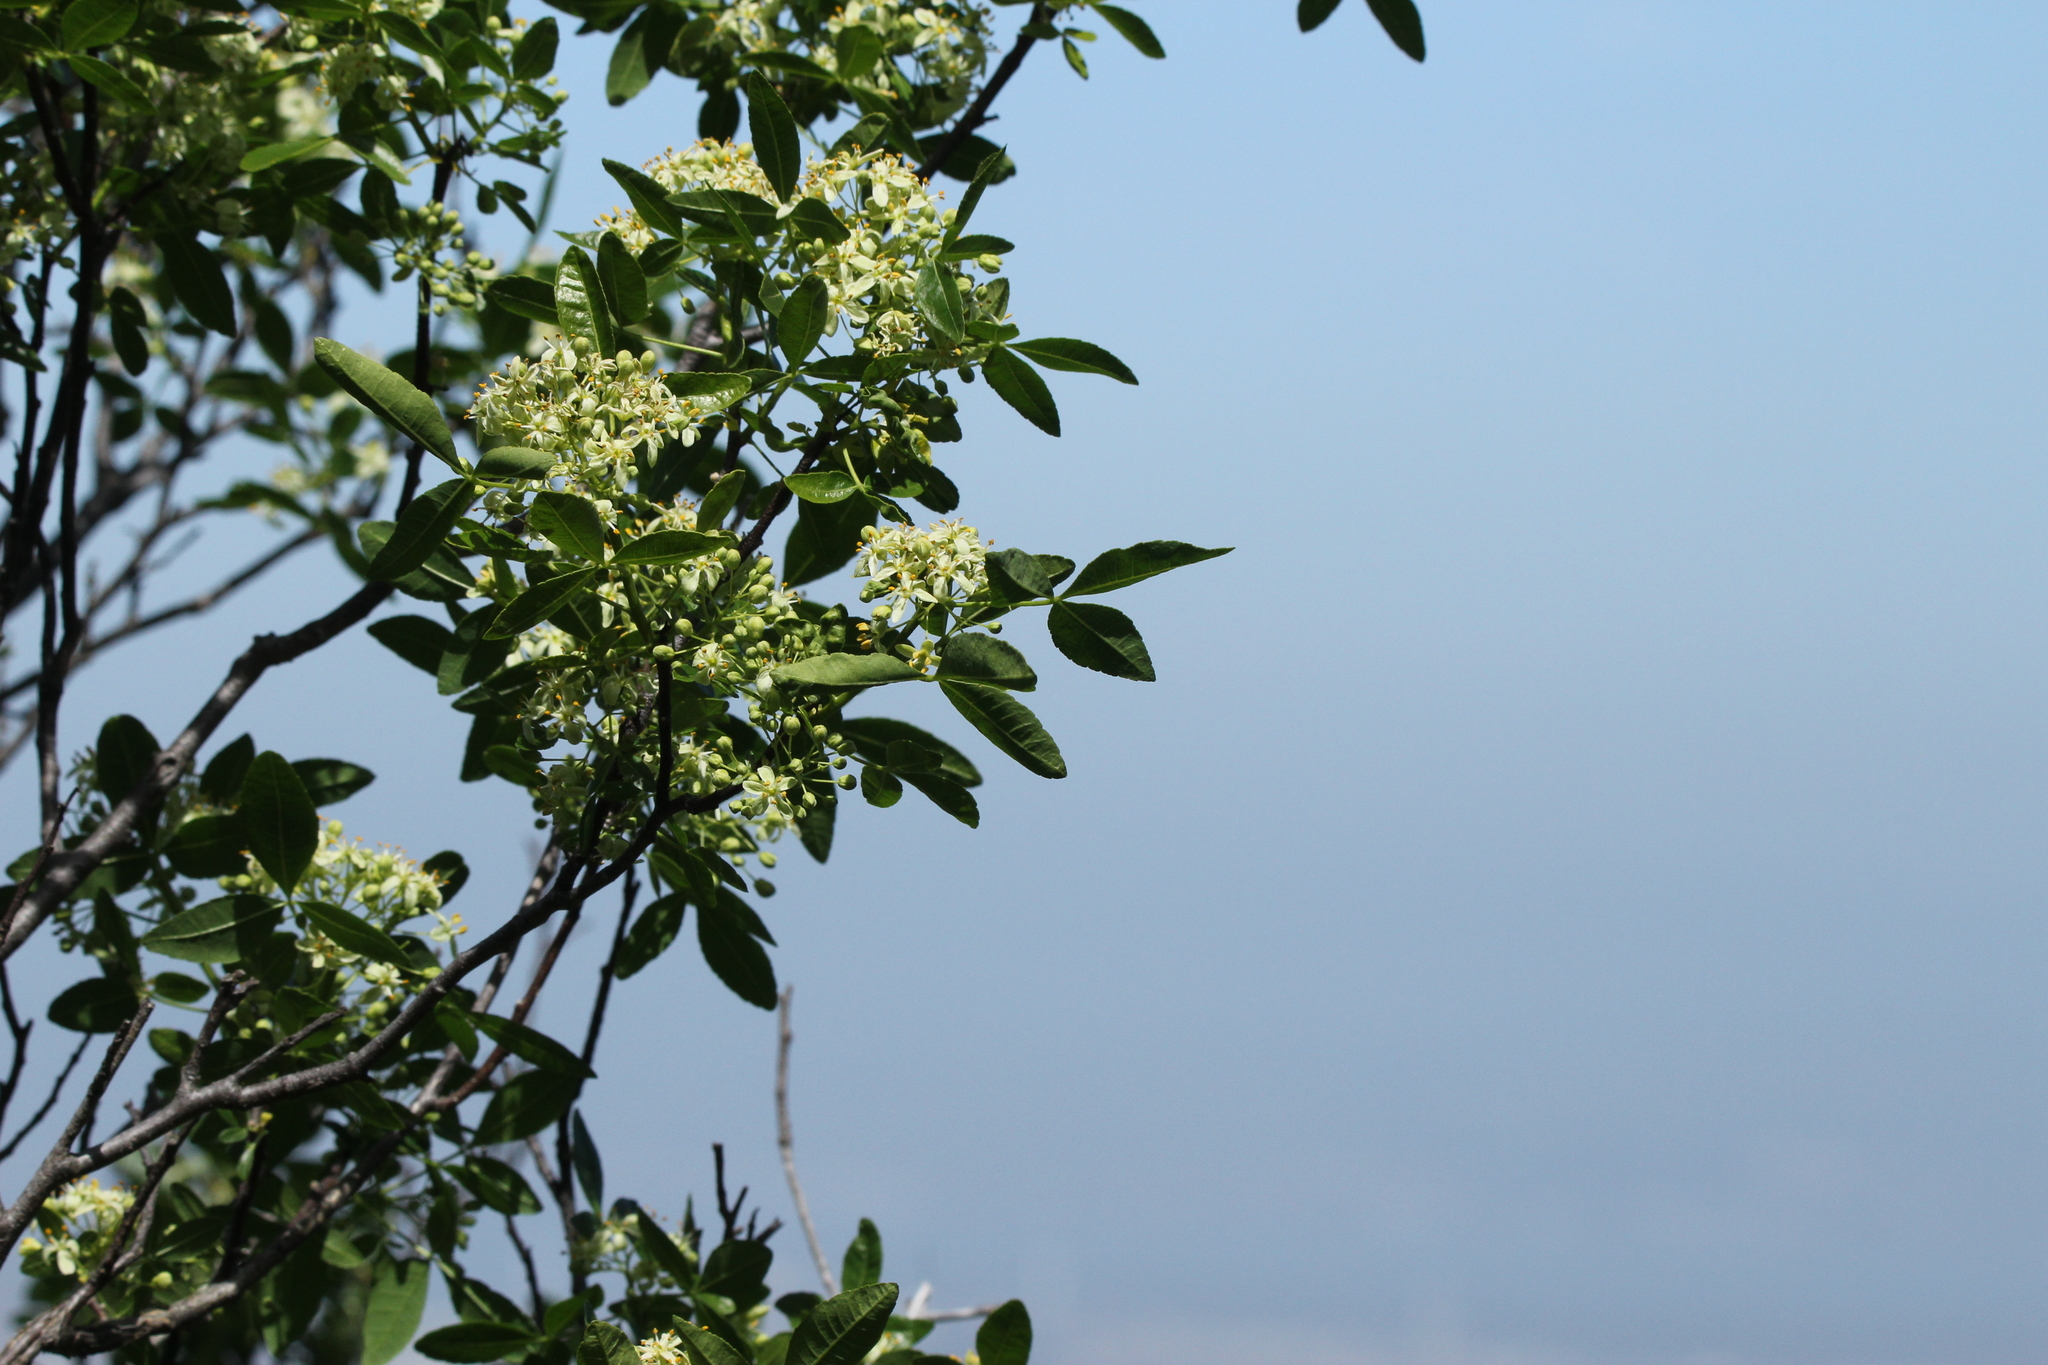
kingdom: Plantae
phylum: Tracheophyta
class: Magnoliopsida
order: Sapindales
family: Rutaceae
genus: Ptelea
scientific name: Ptelea crenulata
